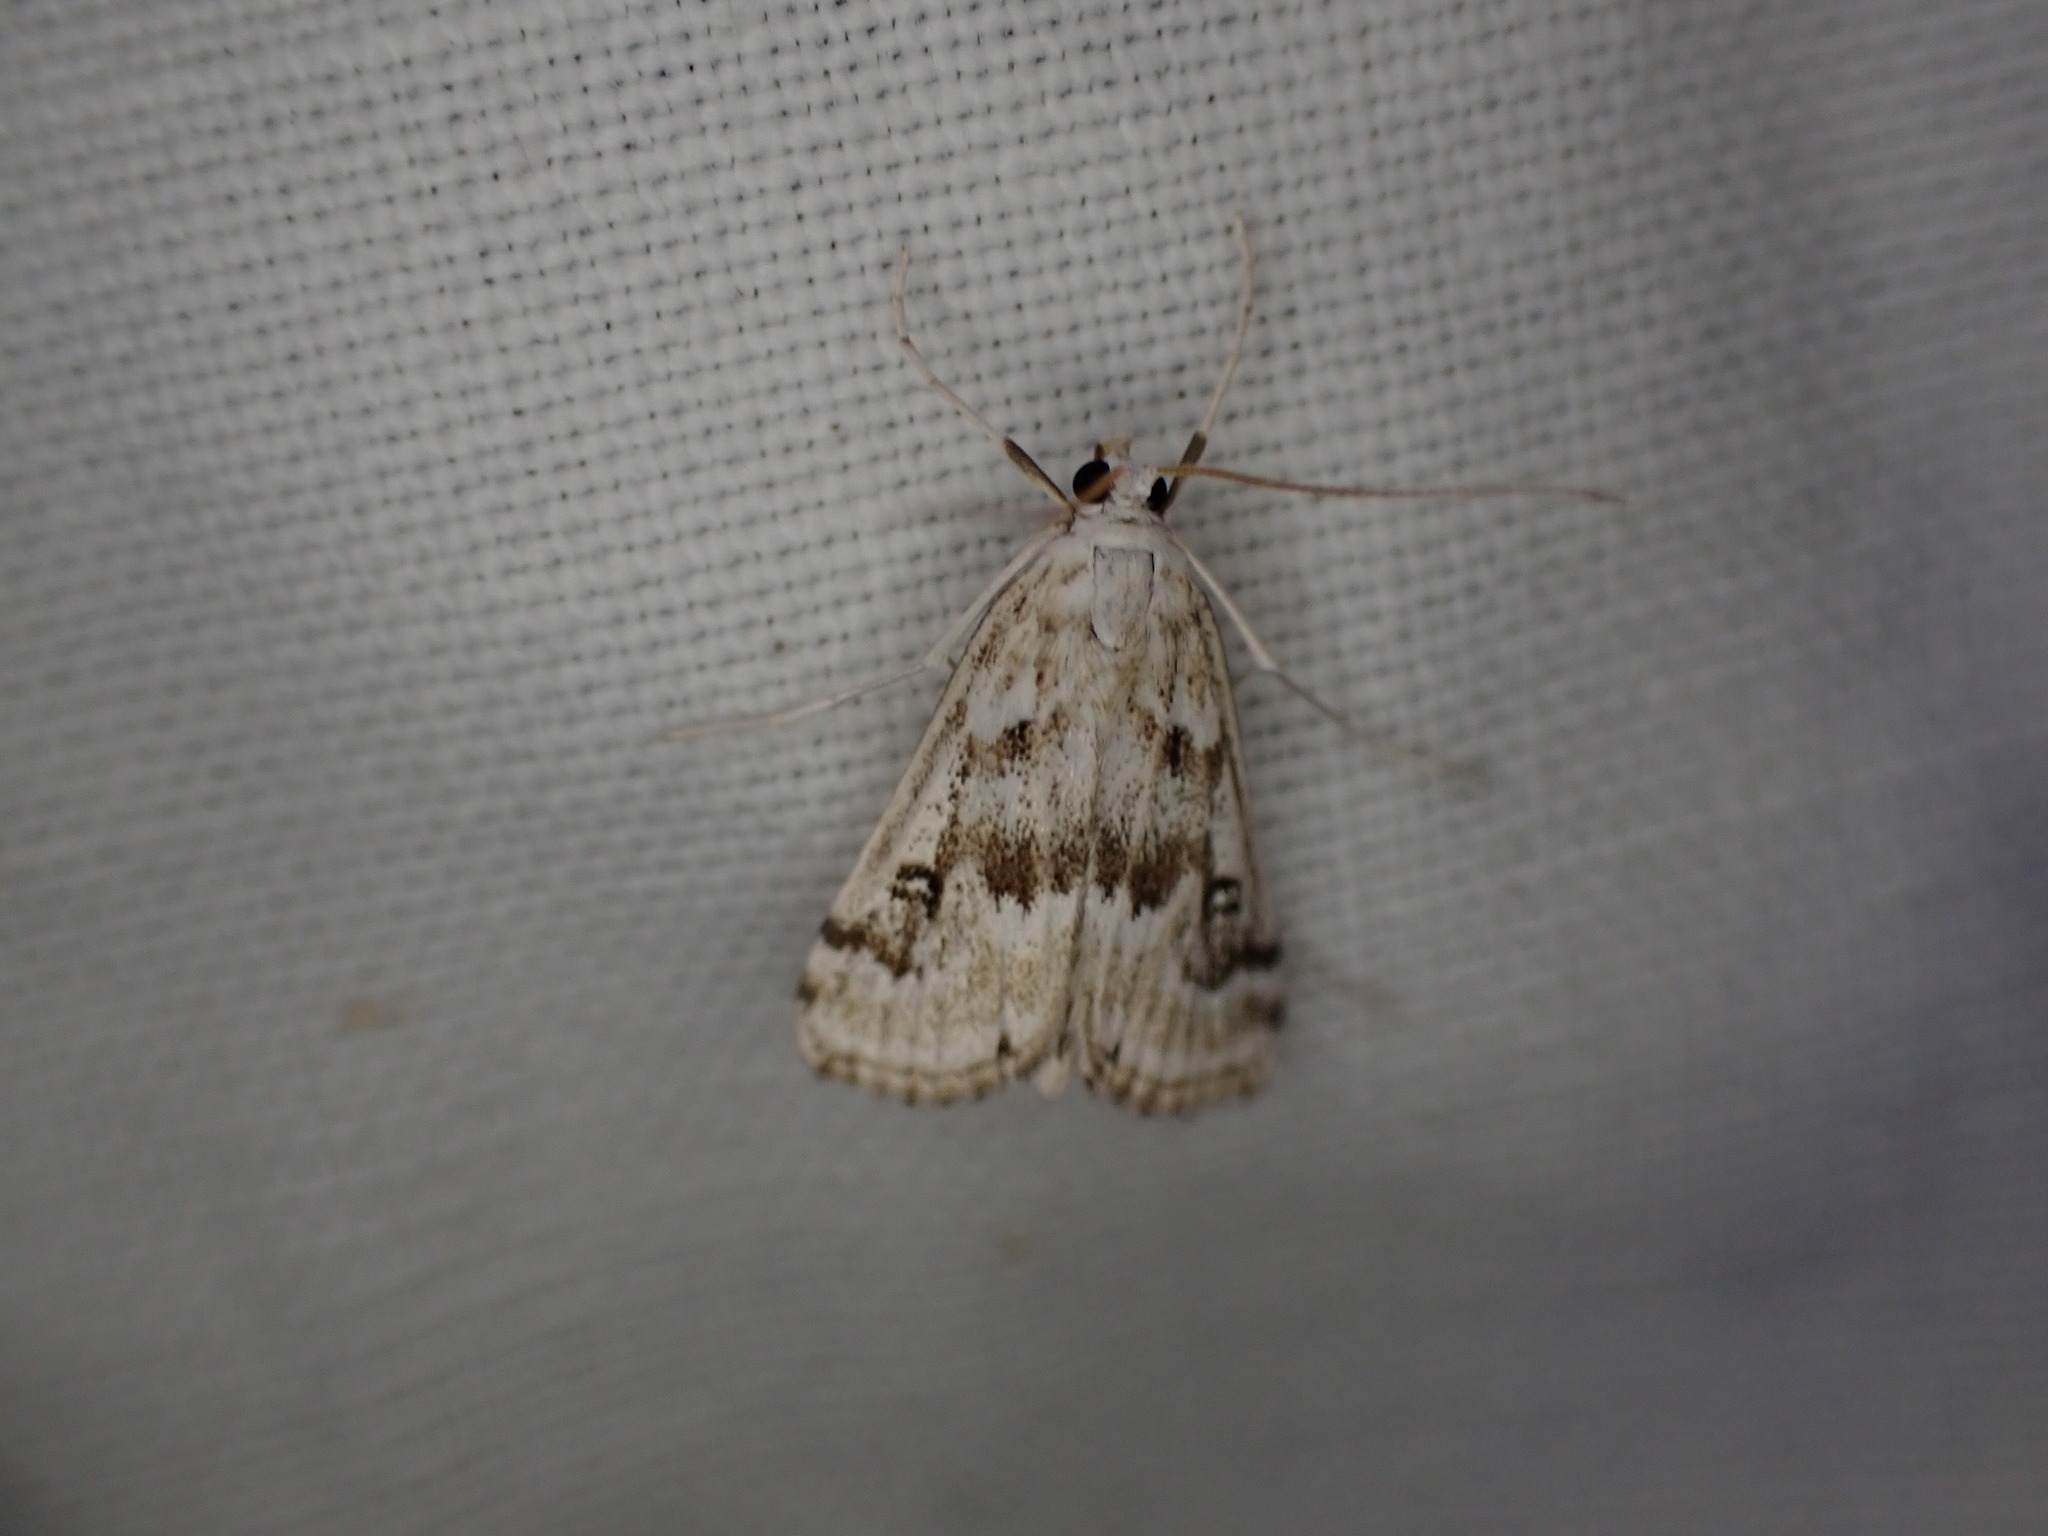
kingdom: Animalia
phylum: Arthropoda
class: Insecta
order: Lepidoptera
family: Crambidae
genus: Parapoynx
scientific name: Parapoynx stratiotata
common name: Ringed china-mark
